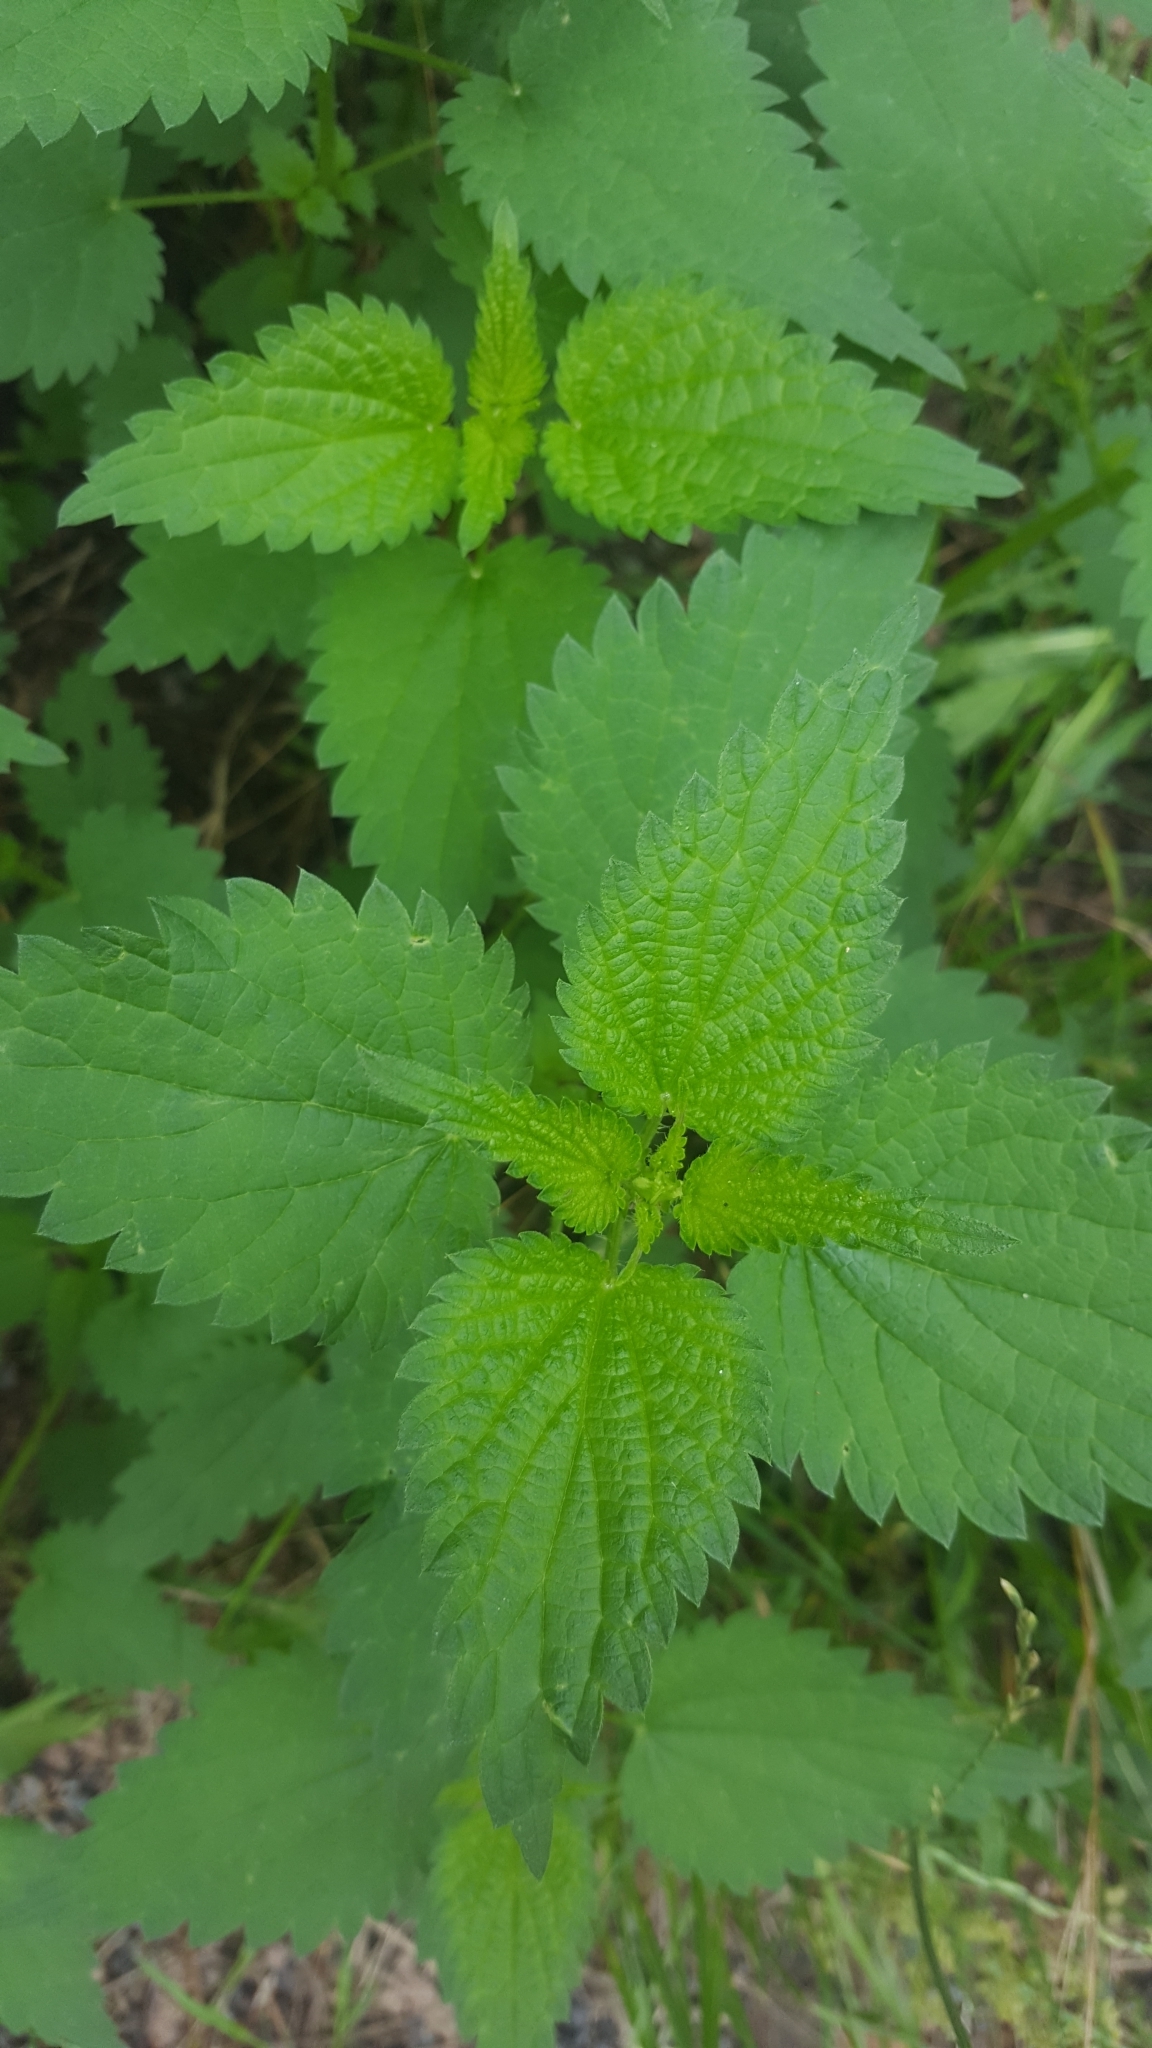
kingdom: Plantae
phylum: Tracheophyta
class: Magnoliopsida
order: Rosales
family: Urticaceae
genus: Urtica
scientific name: Urtica dioica
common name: Common nettle
